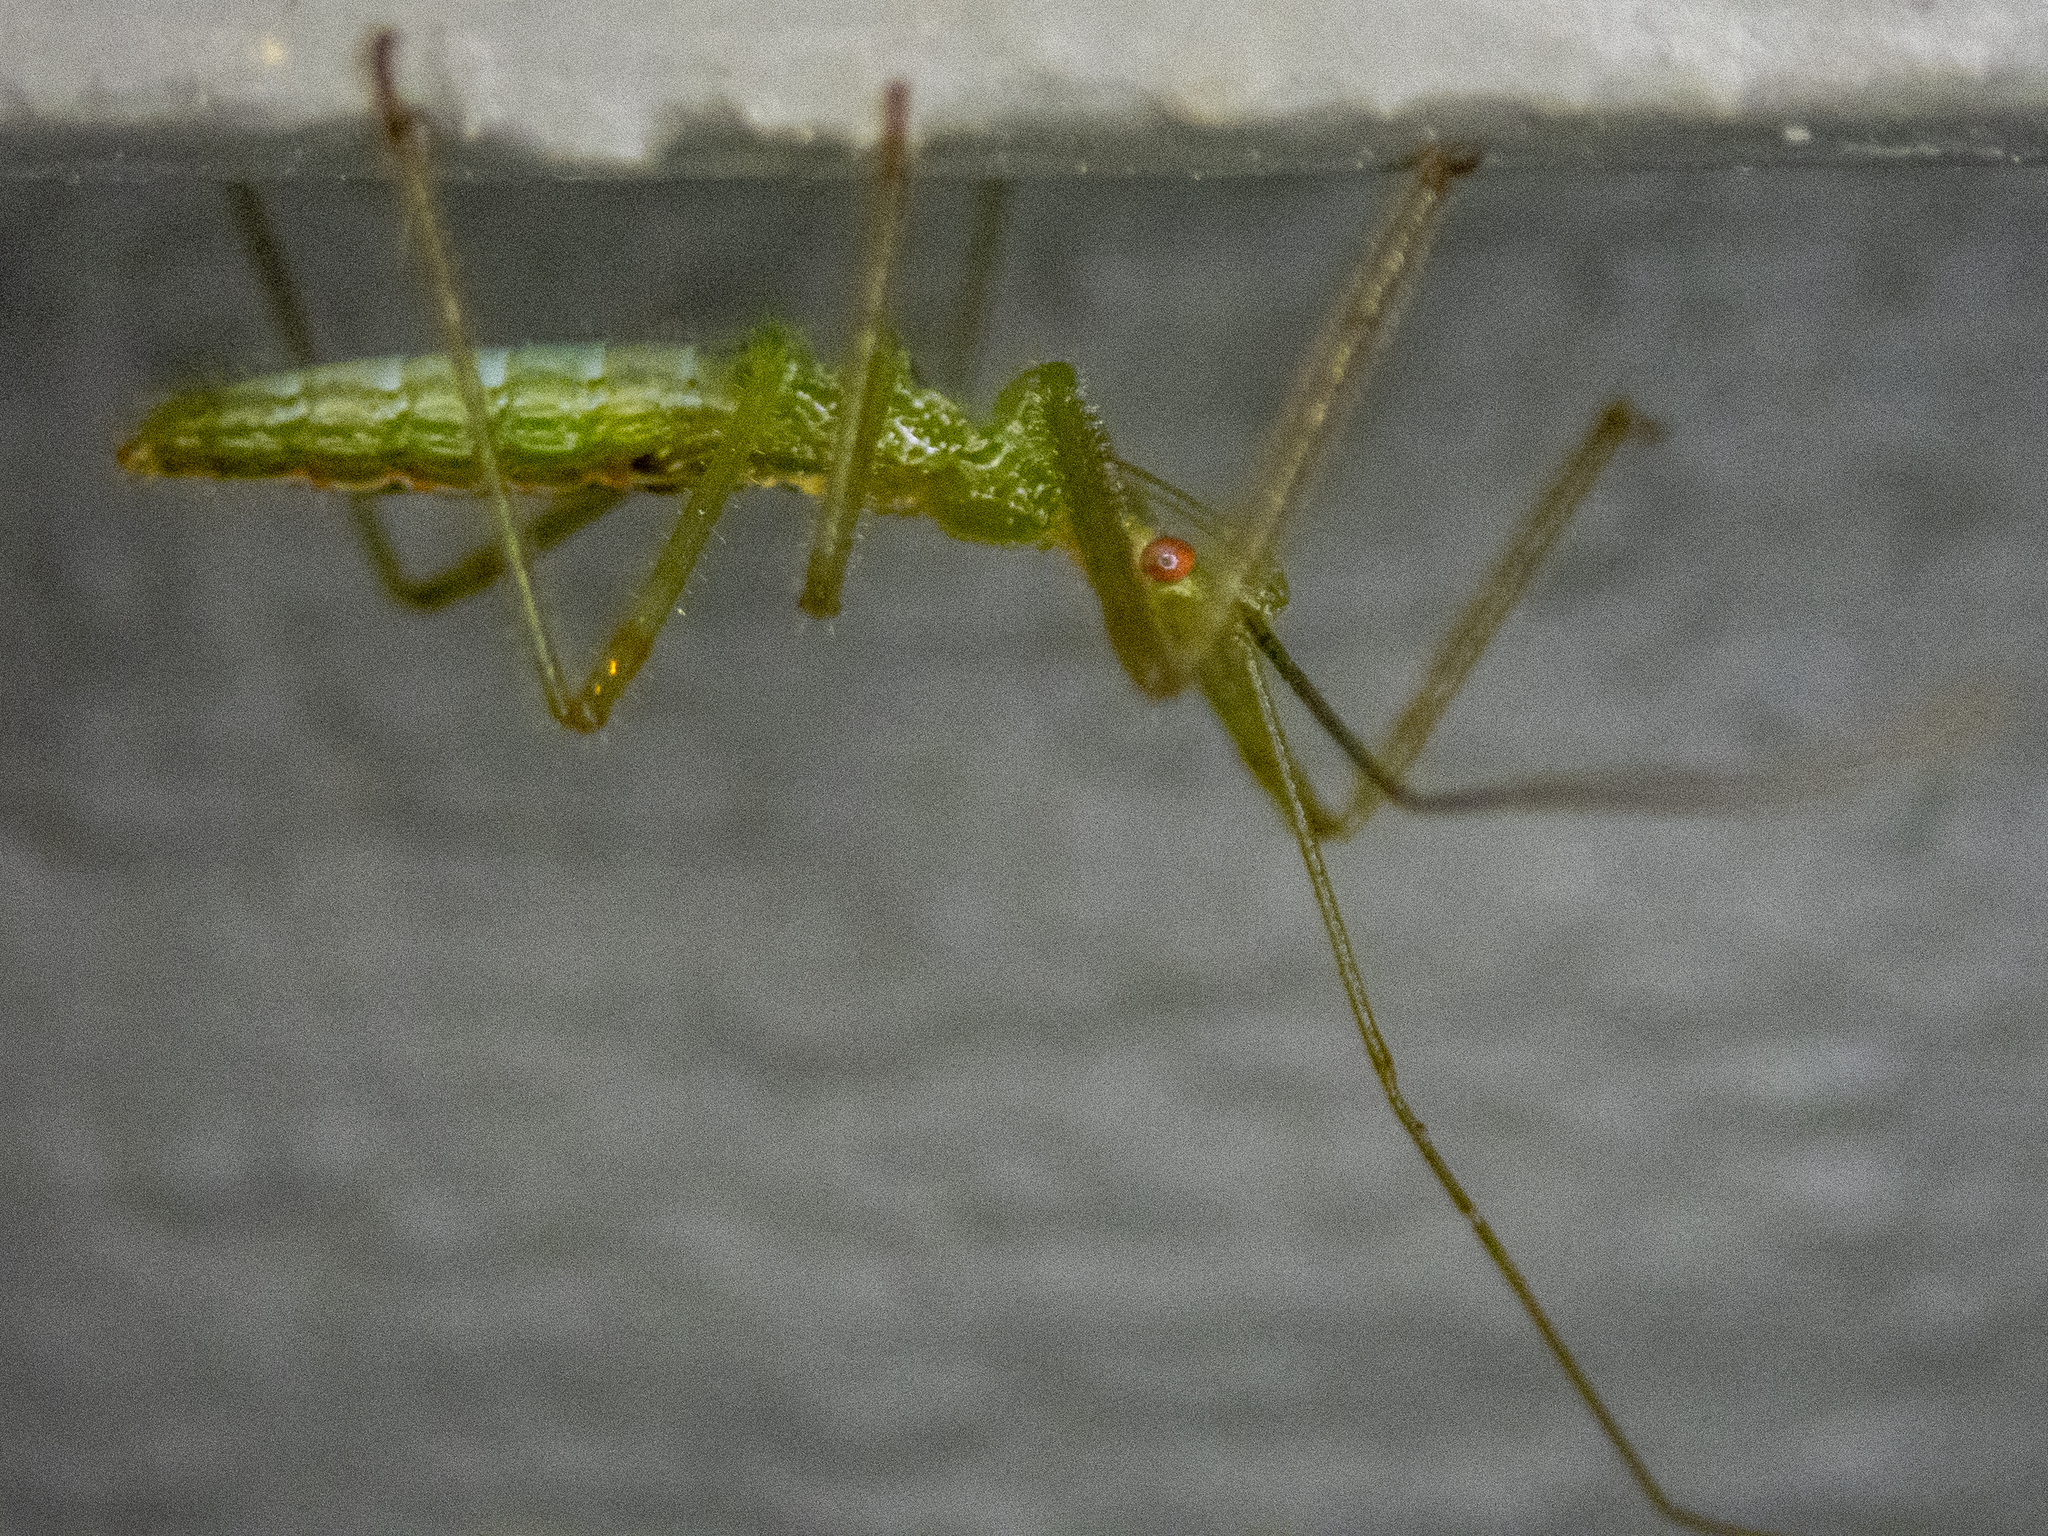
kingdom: Animalia
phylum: Arthropoda
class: Insecta
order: Hemiptera
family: Reduviidae
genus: Zelus
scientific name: Zelus luridus
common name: Pale green assassin bug
